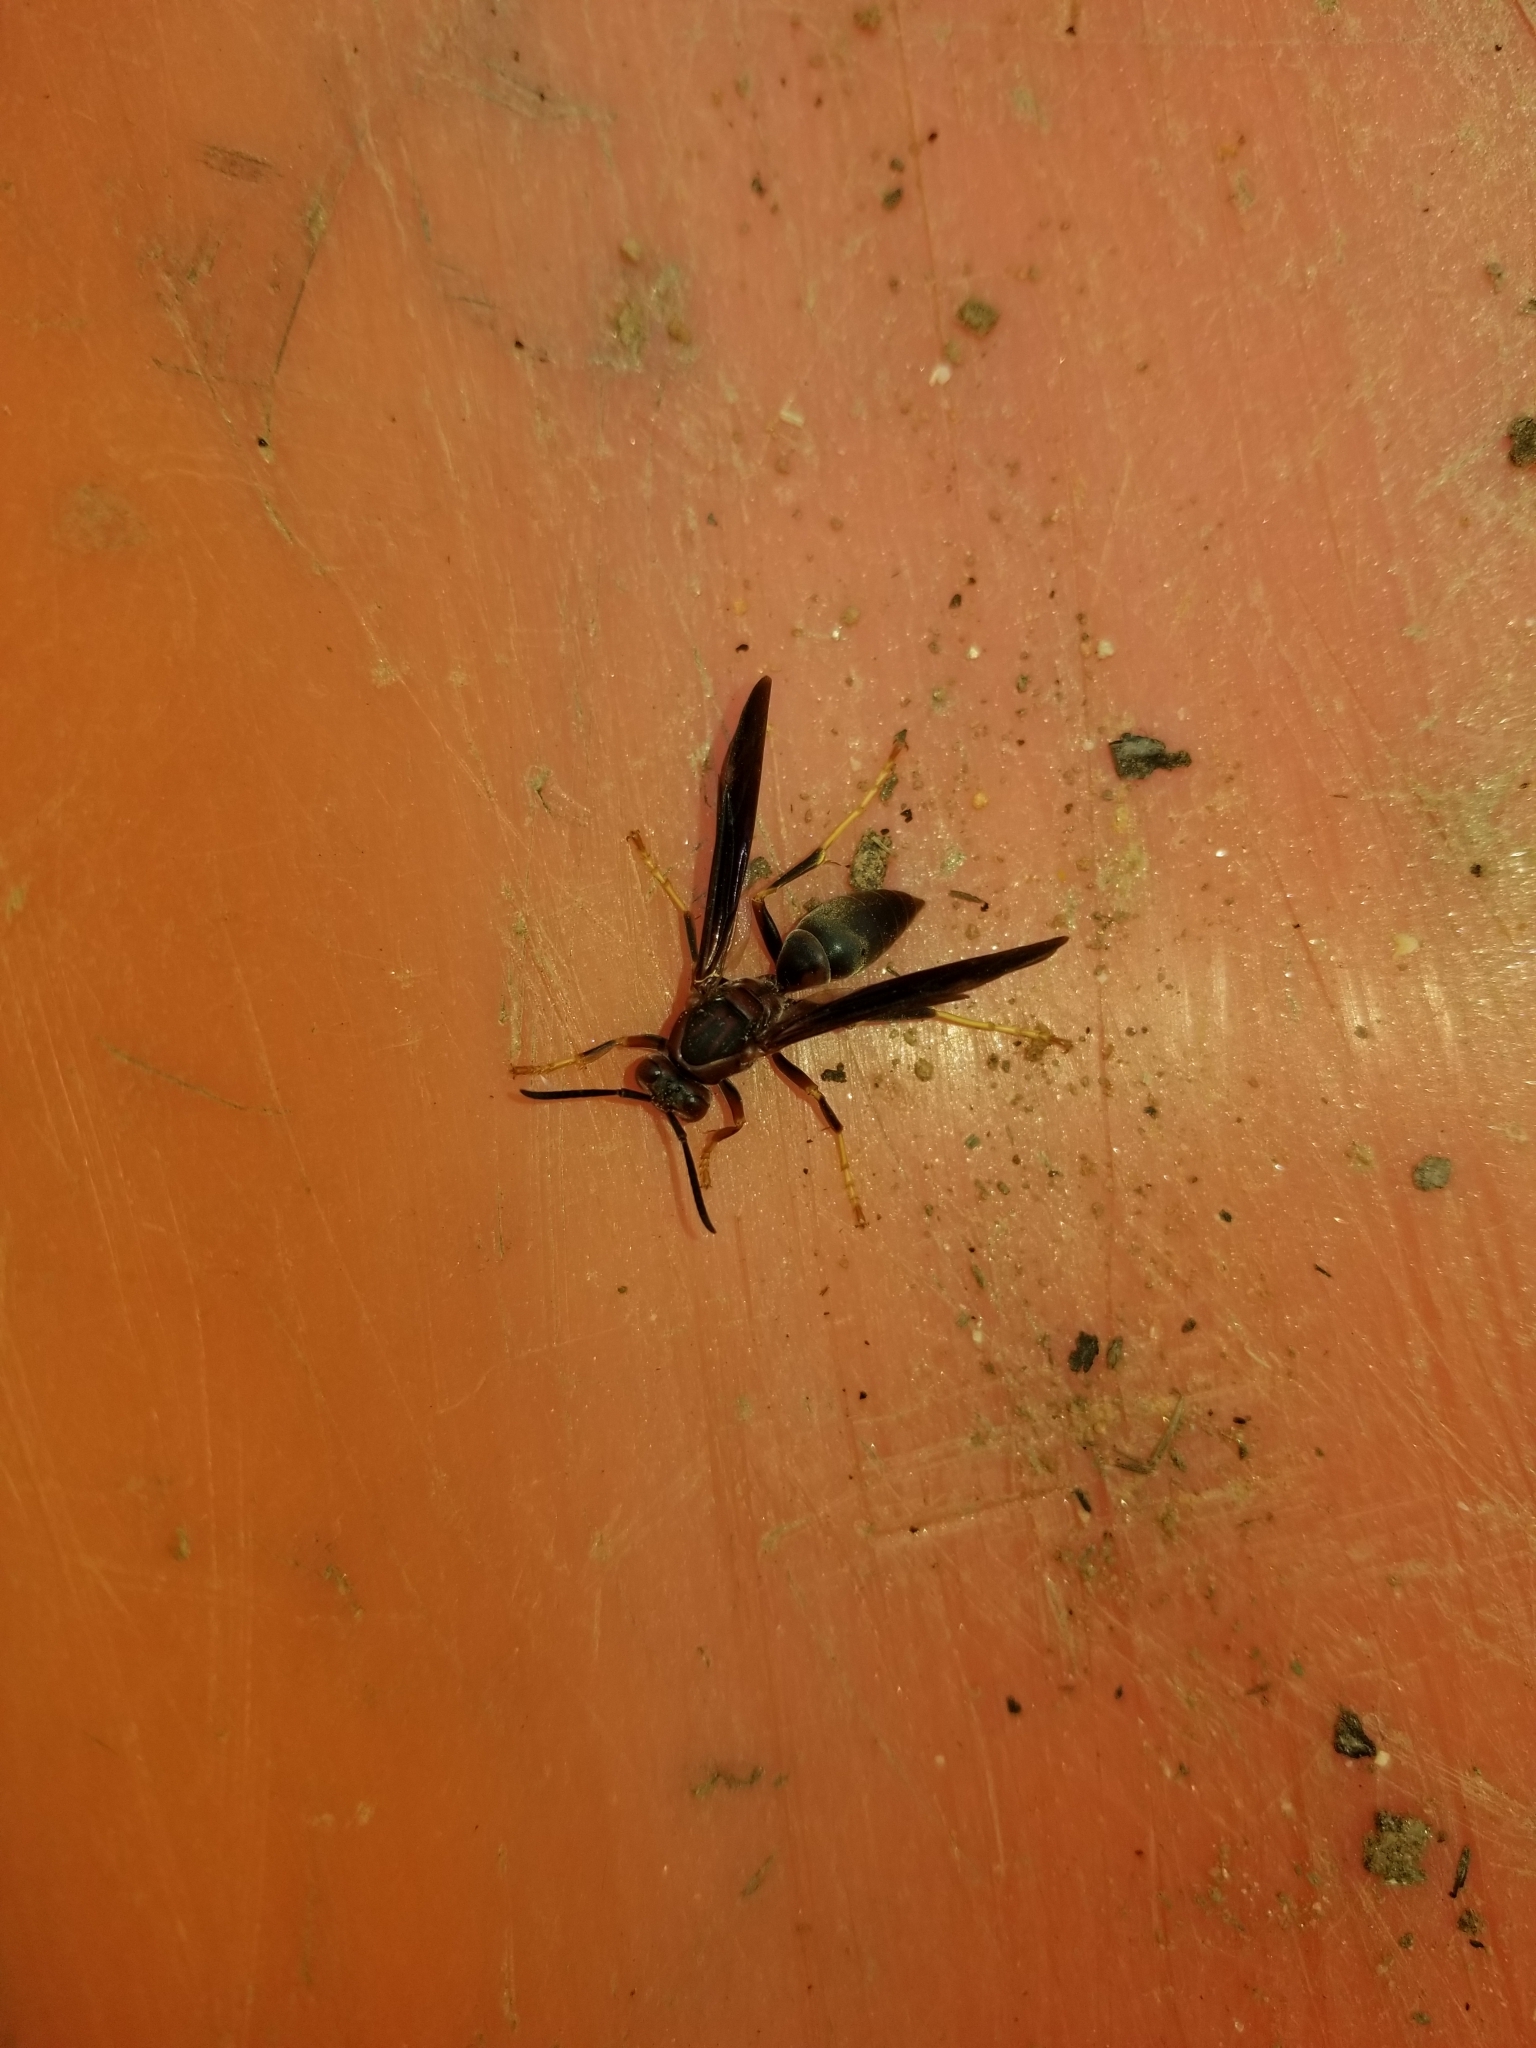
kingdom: Animalia
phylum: Arthropoda
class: Insecta
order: Hymenoptera
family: Eumenidae
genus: Polistes
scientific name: Polistes metricus
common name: Metric paper wasp
